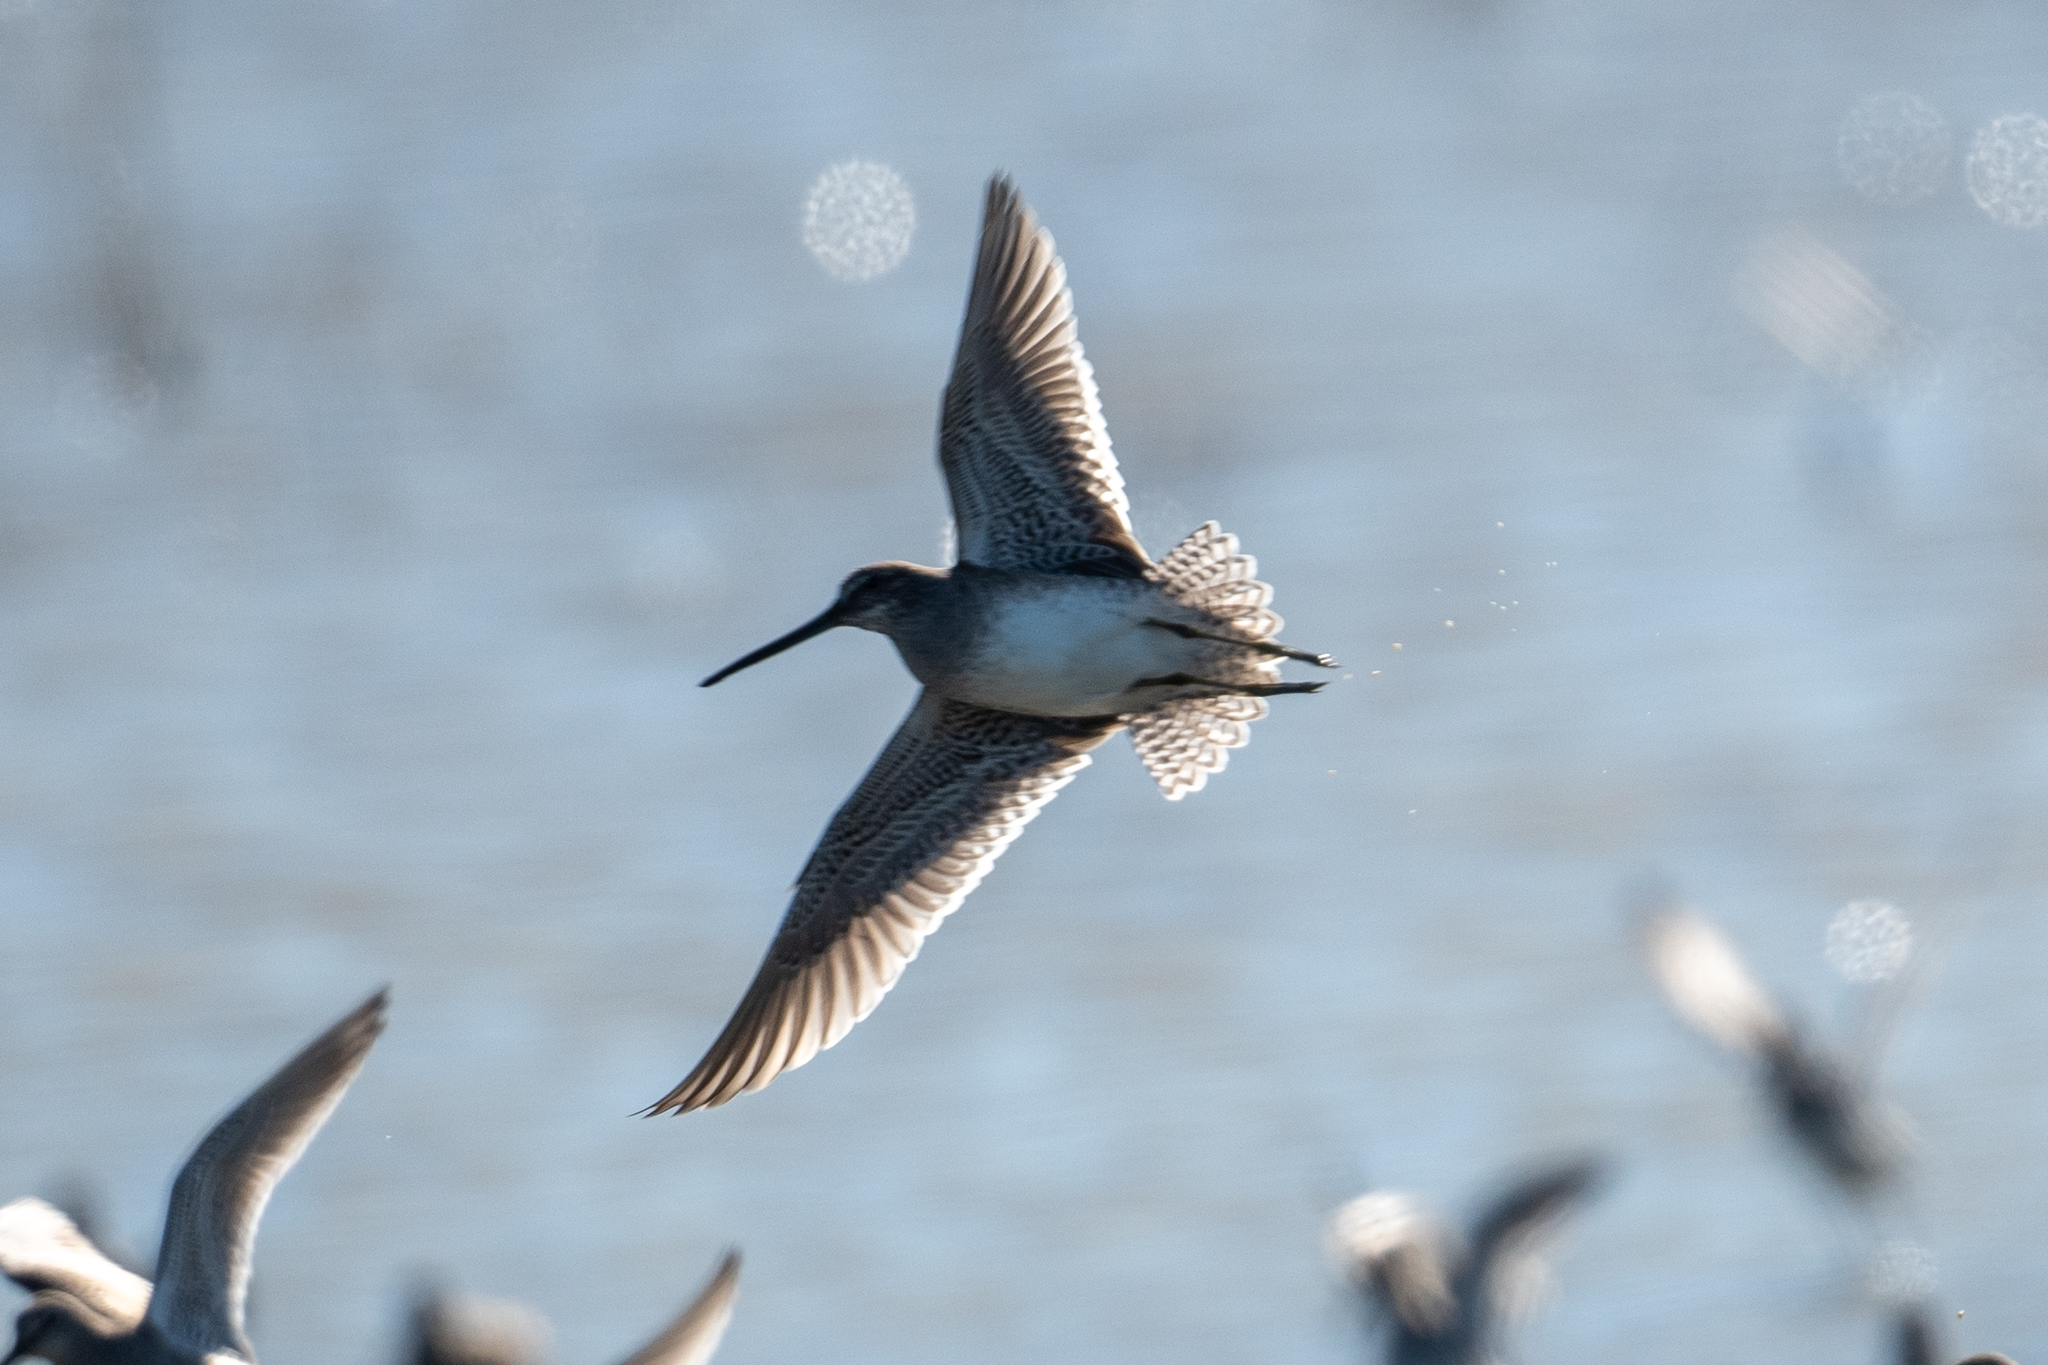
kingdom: Animalia
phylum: Chordata
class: Aves
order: Charadriiformes
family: Scolopacidae
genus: Limnodromus
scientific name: Limnodromus scolopaceus
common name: Long-billed dowitcher
